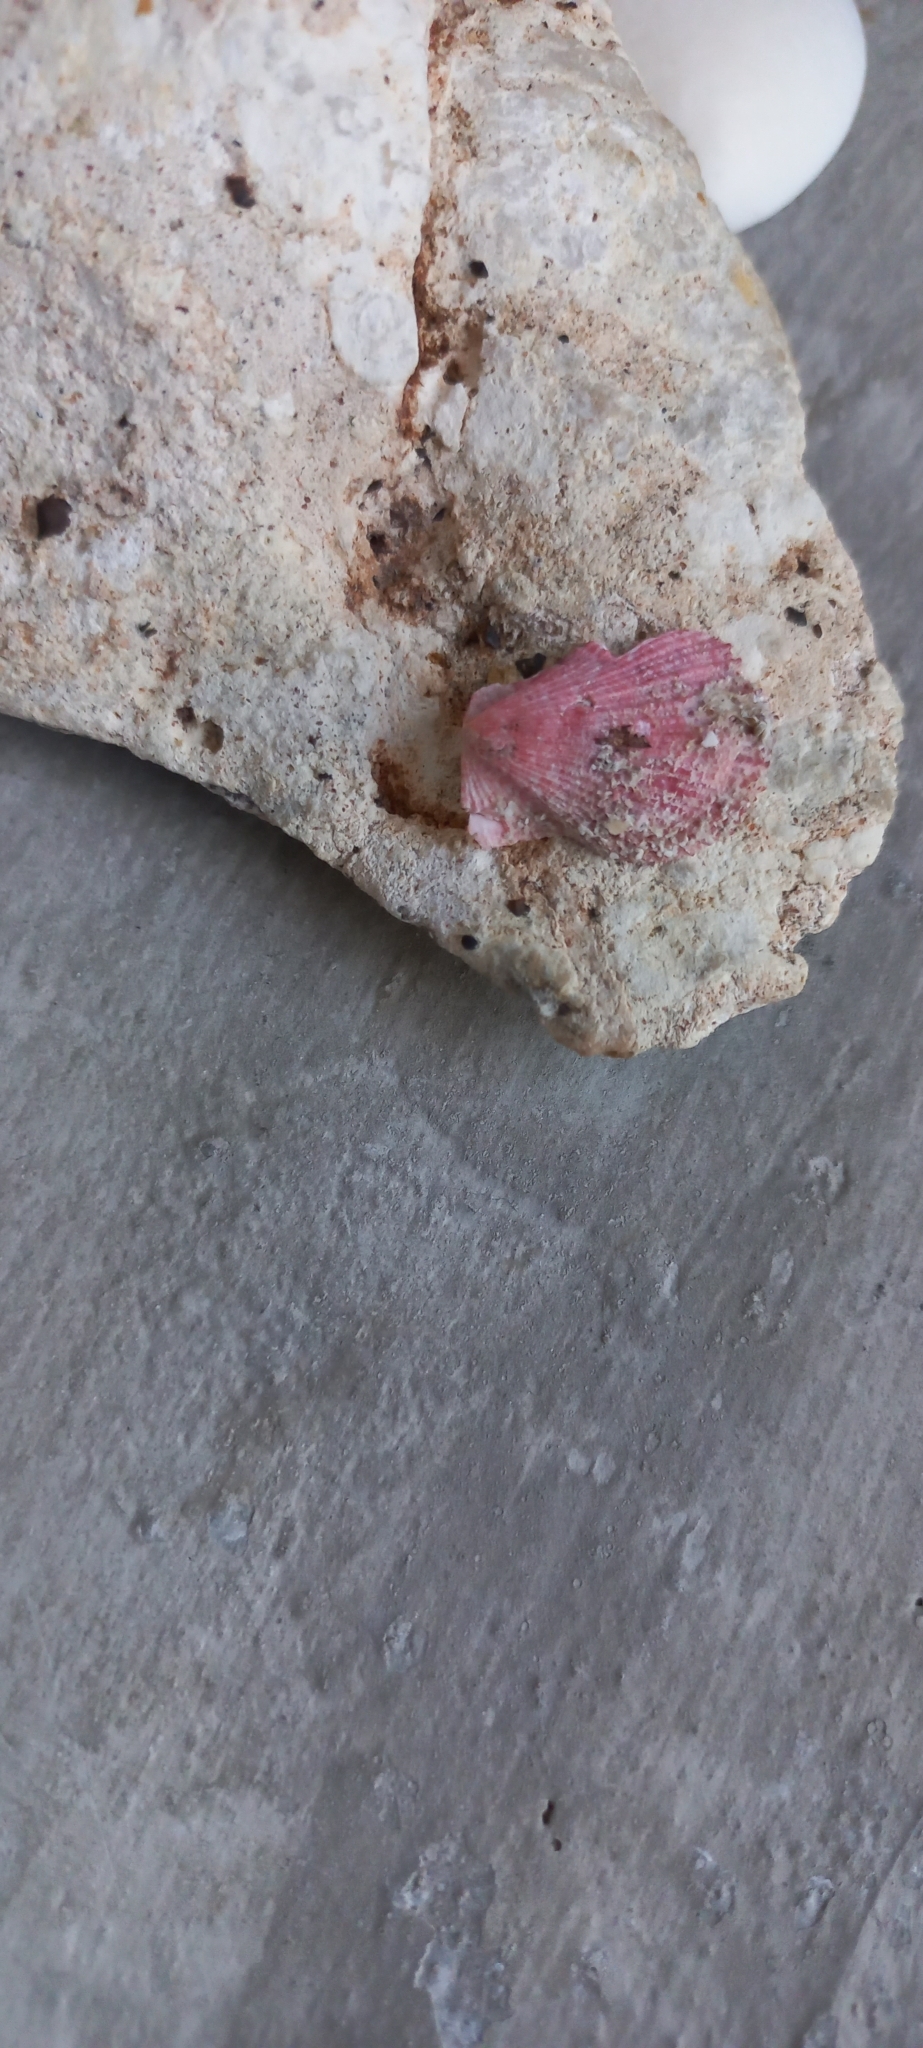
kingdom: Animalia
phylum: Mollusca
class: Bivalvia
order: Pectinida
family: Pectinidae
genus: Talochlamys
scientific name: Talochlamys multistriata
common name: Tinted scallop
